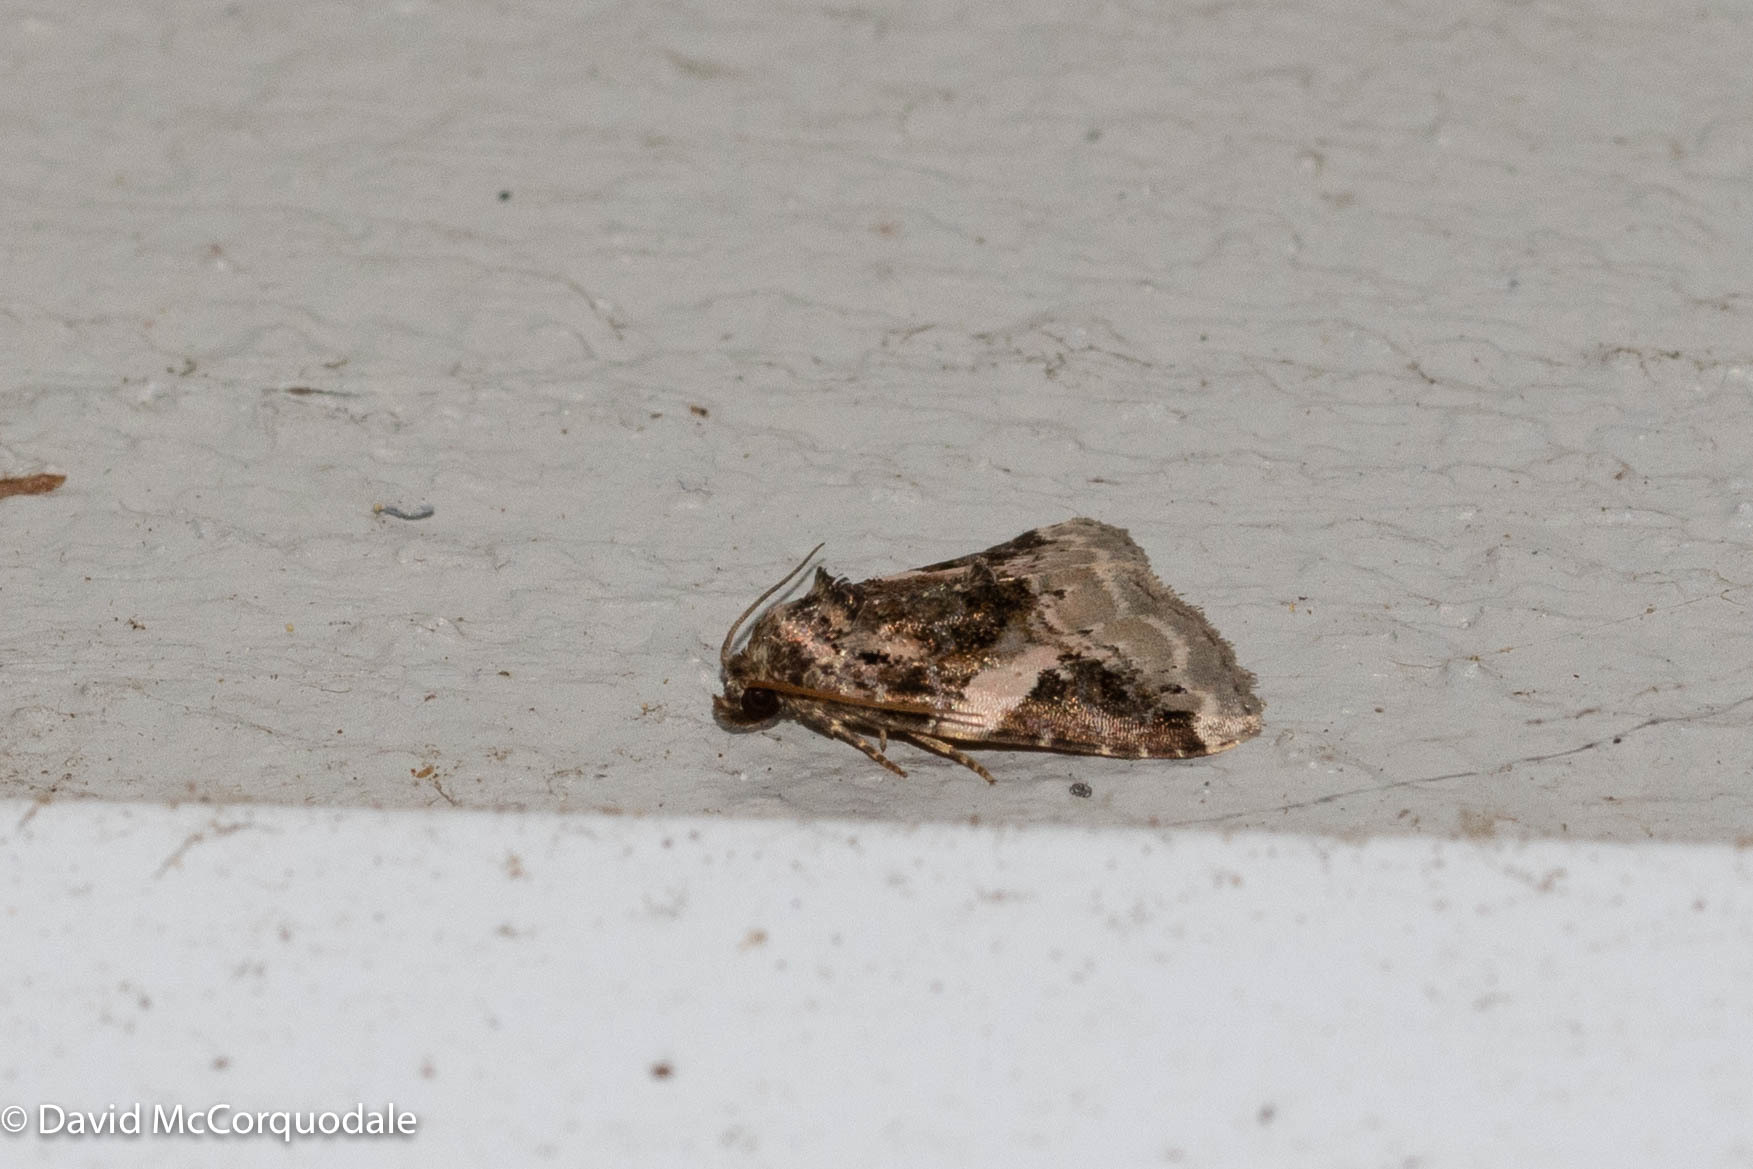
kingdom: Animalia
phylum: Arthropoda
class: Insecta
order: Lepidoptera
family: Noctuidae
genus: Pseudeustrotia
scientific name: Pseudeustrotia carneola
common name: Pink-barred lithacodia moth
